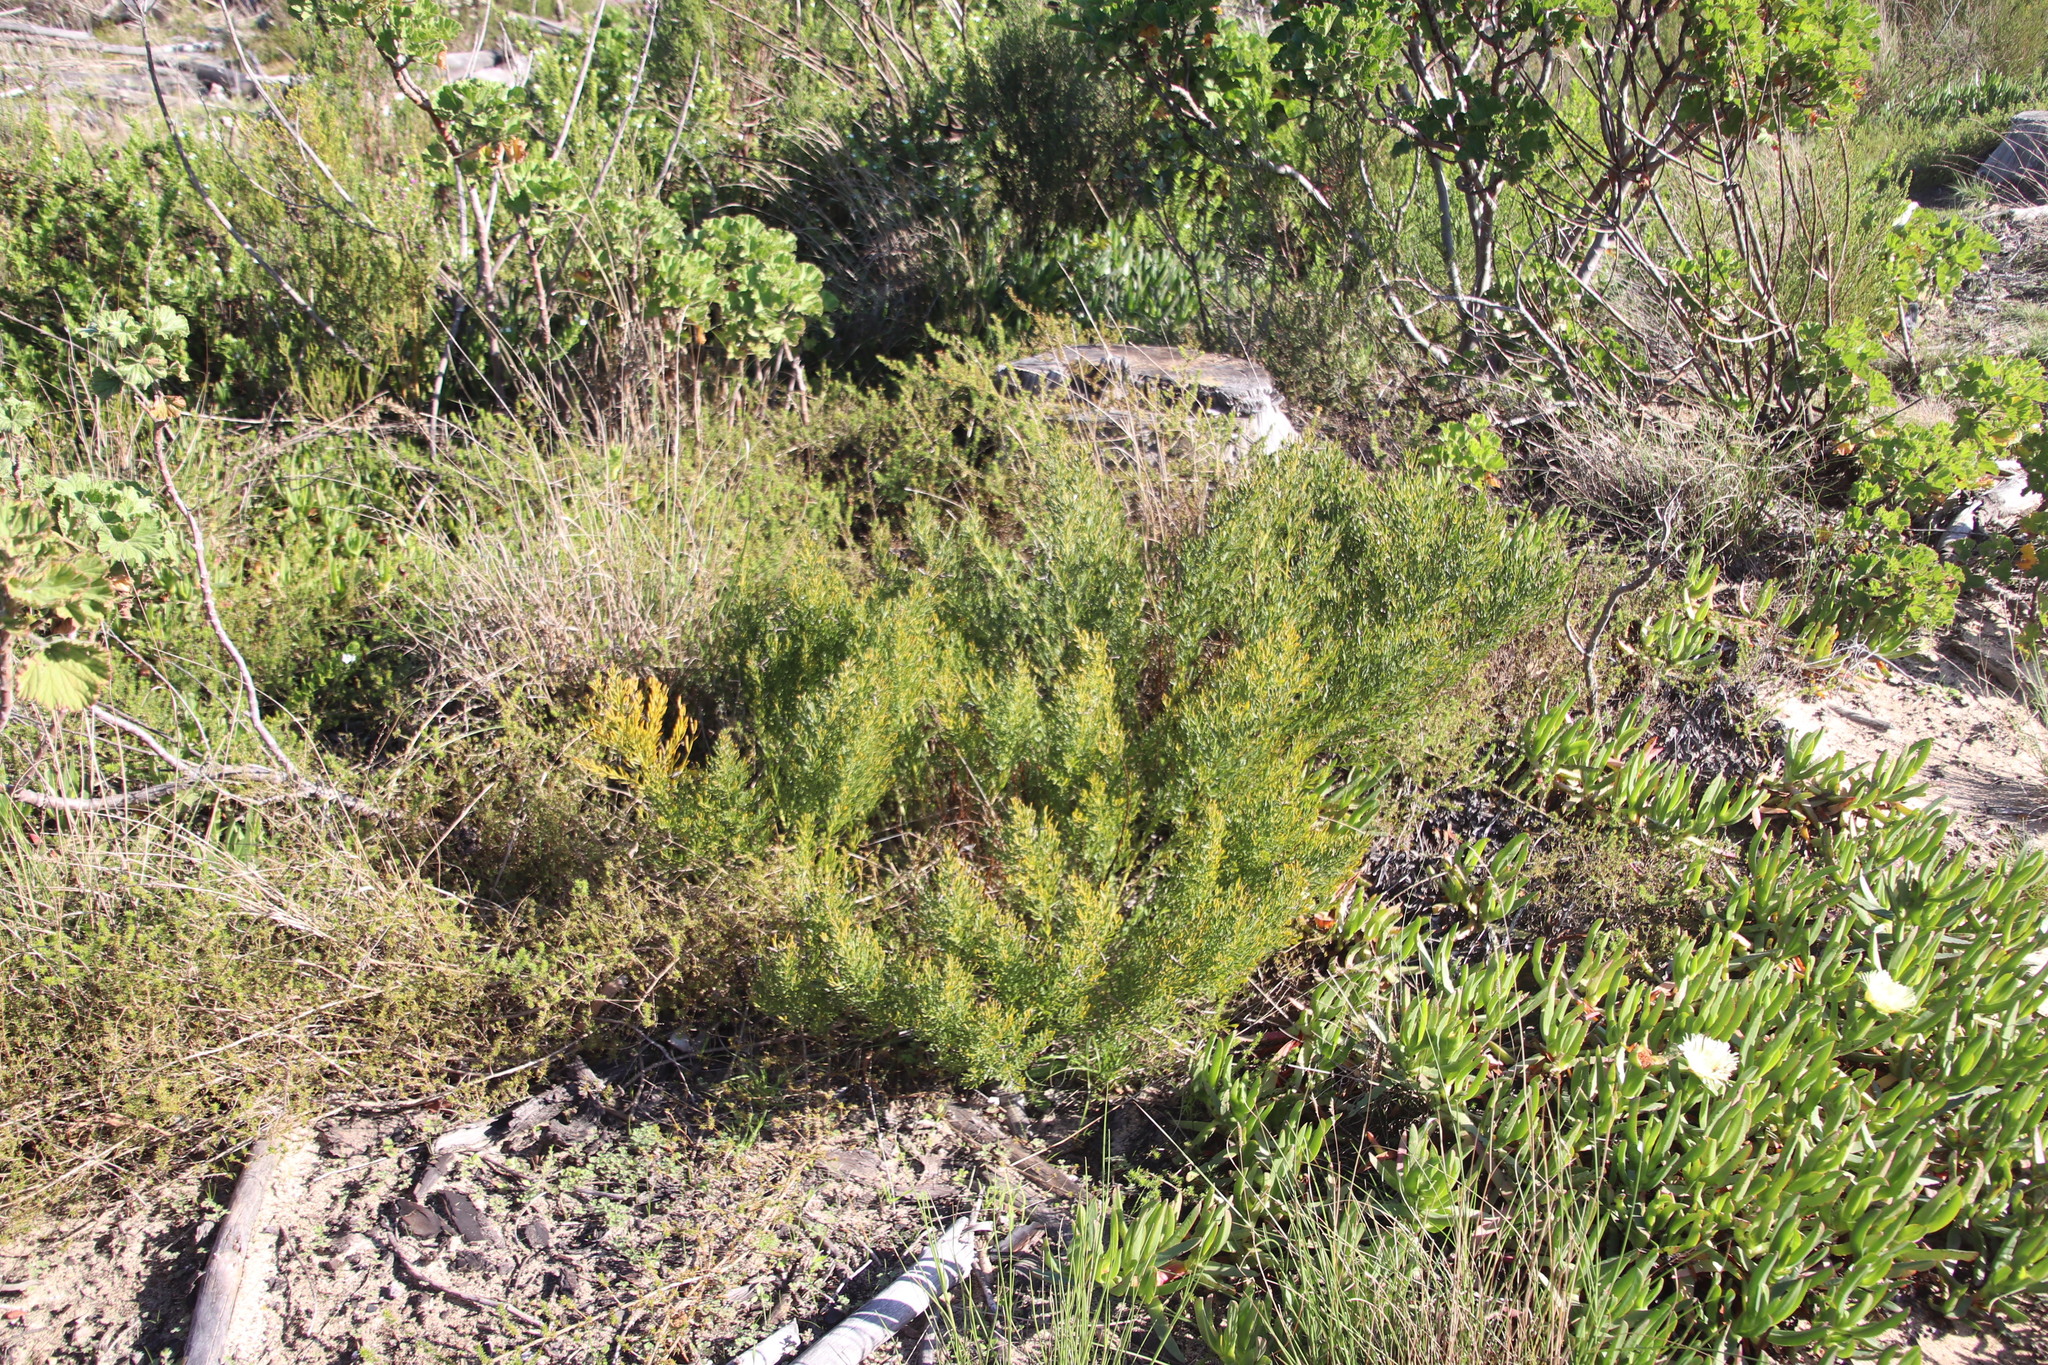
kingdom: Plantae
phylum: Tracheophyta
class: Magnoliopsida
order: Fabales
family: Fabaceae
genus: Rafnia
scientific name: Rafnia capensis
